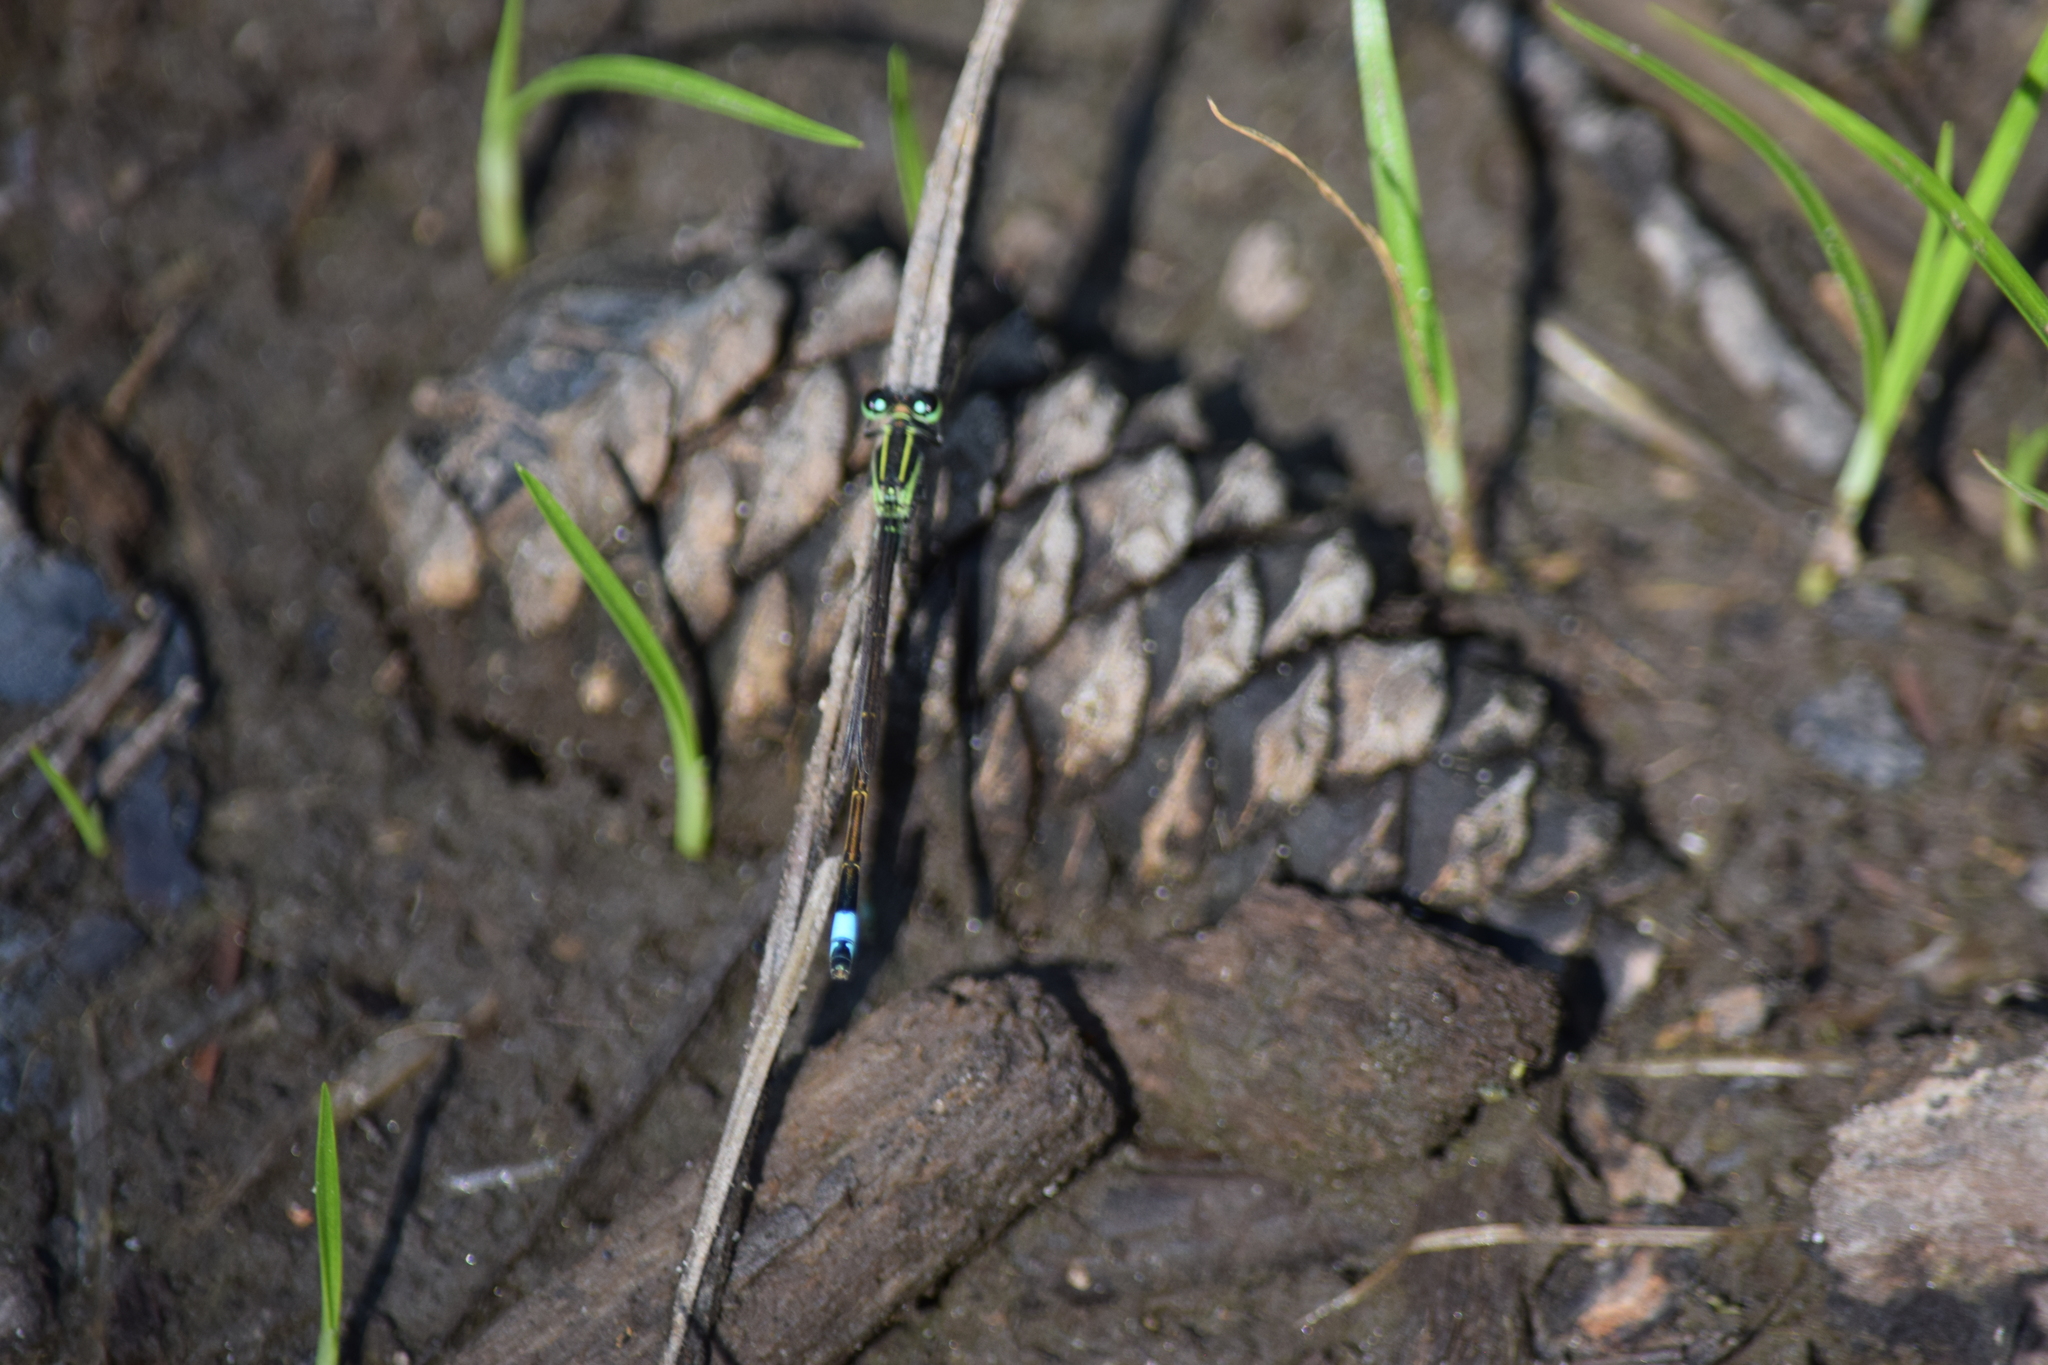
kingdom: Animalia
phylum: Arthropoda
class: Insecta
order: Odonata
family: Coenagrionidae
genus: Ischnura
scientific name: Ischnura ramburii
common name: Rambur's forktail
